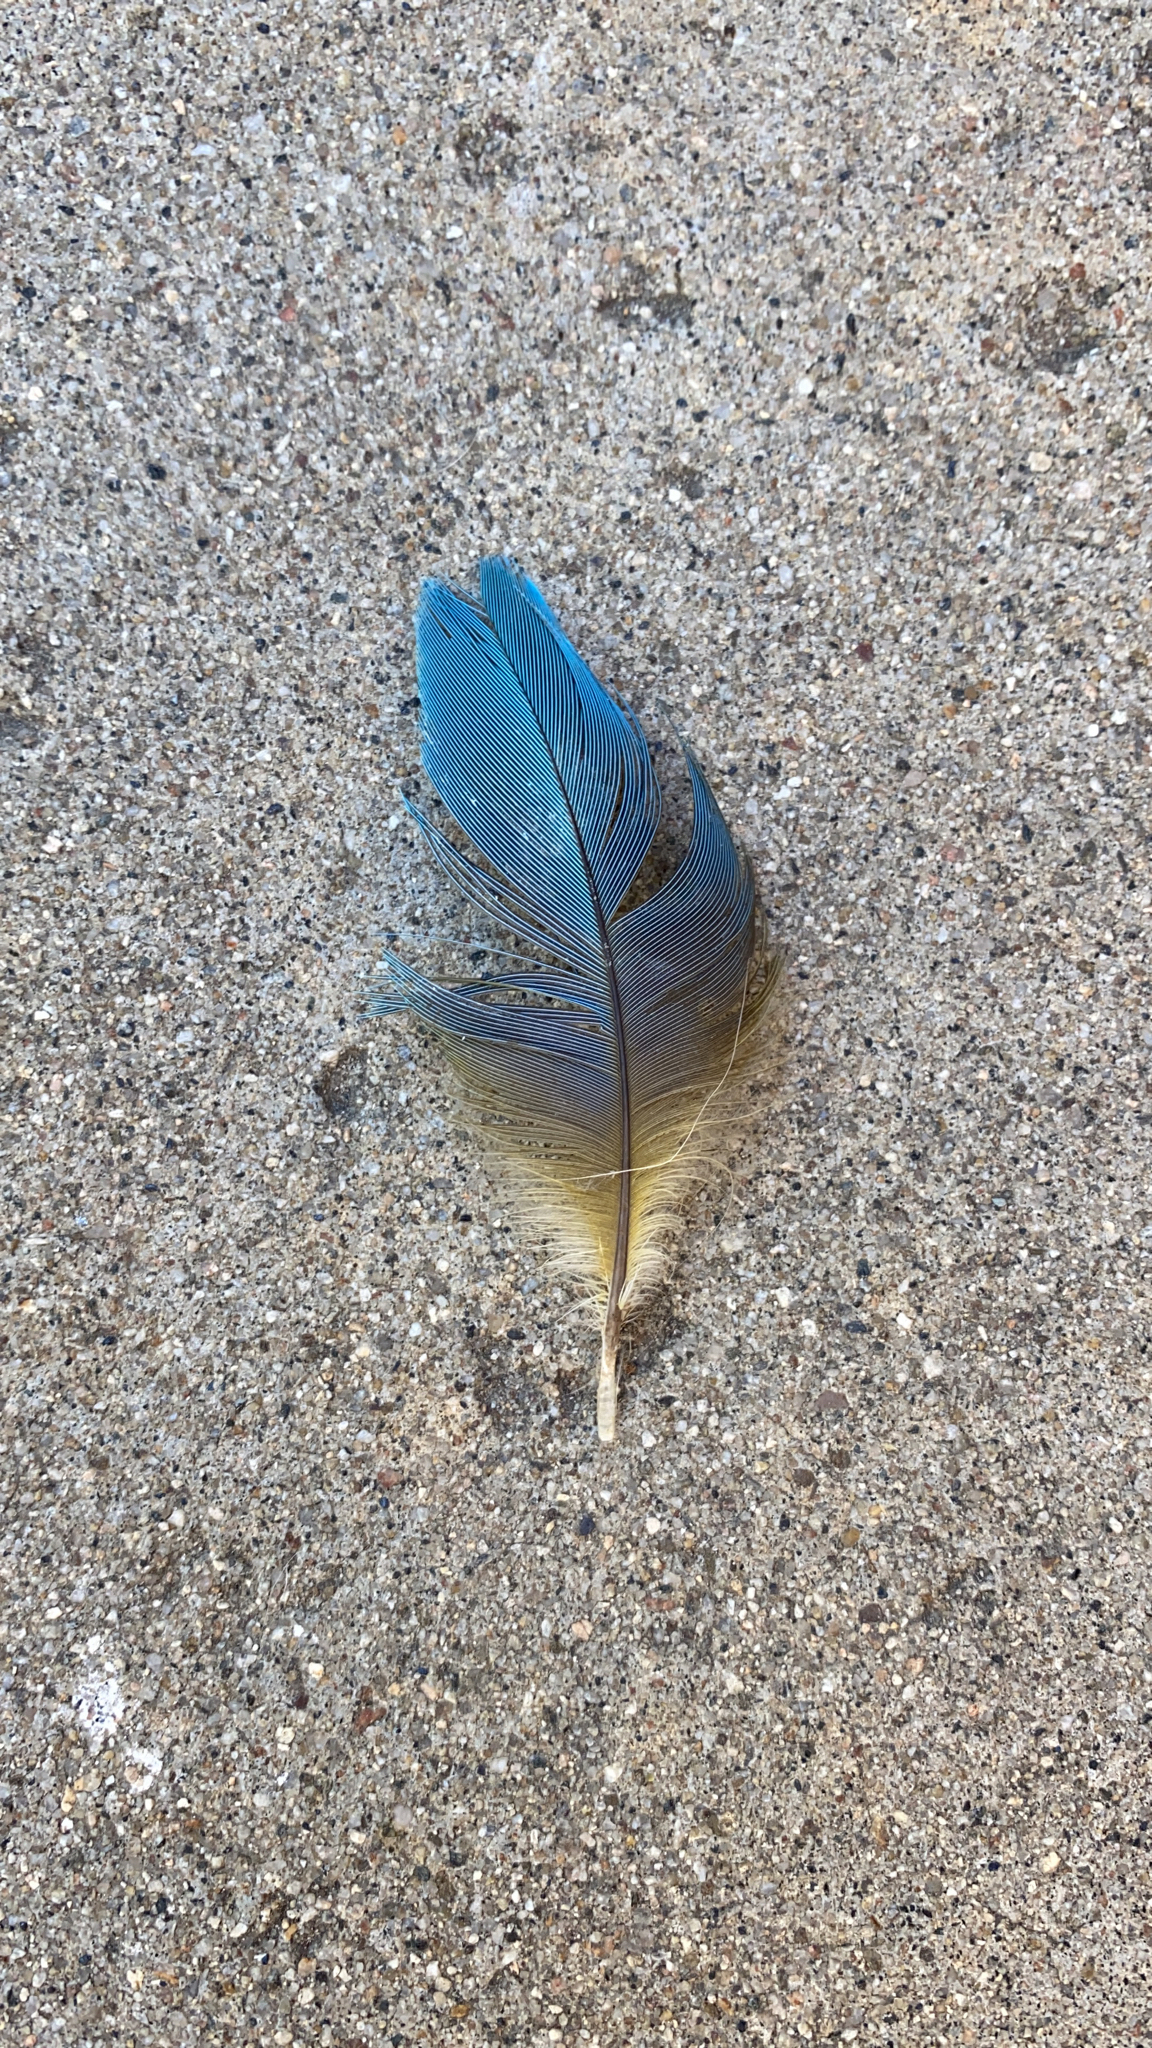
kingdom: Animalia
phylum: Chordata
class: Aves
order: Passeriformes
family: Corvidae
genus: Aphelocoma
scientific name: Aphelocoma californica
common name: California scrub-jay
